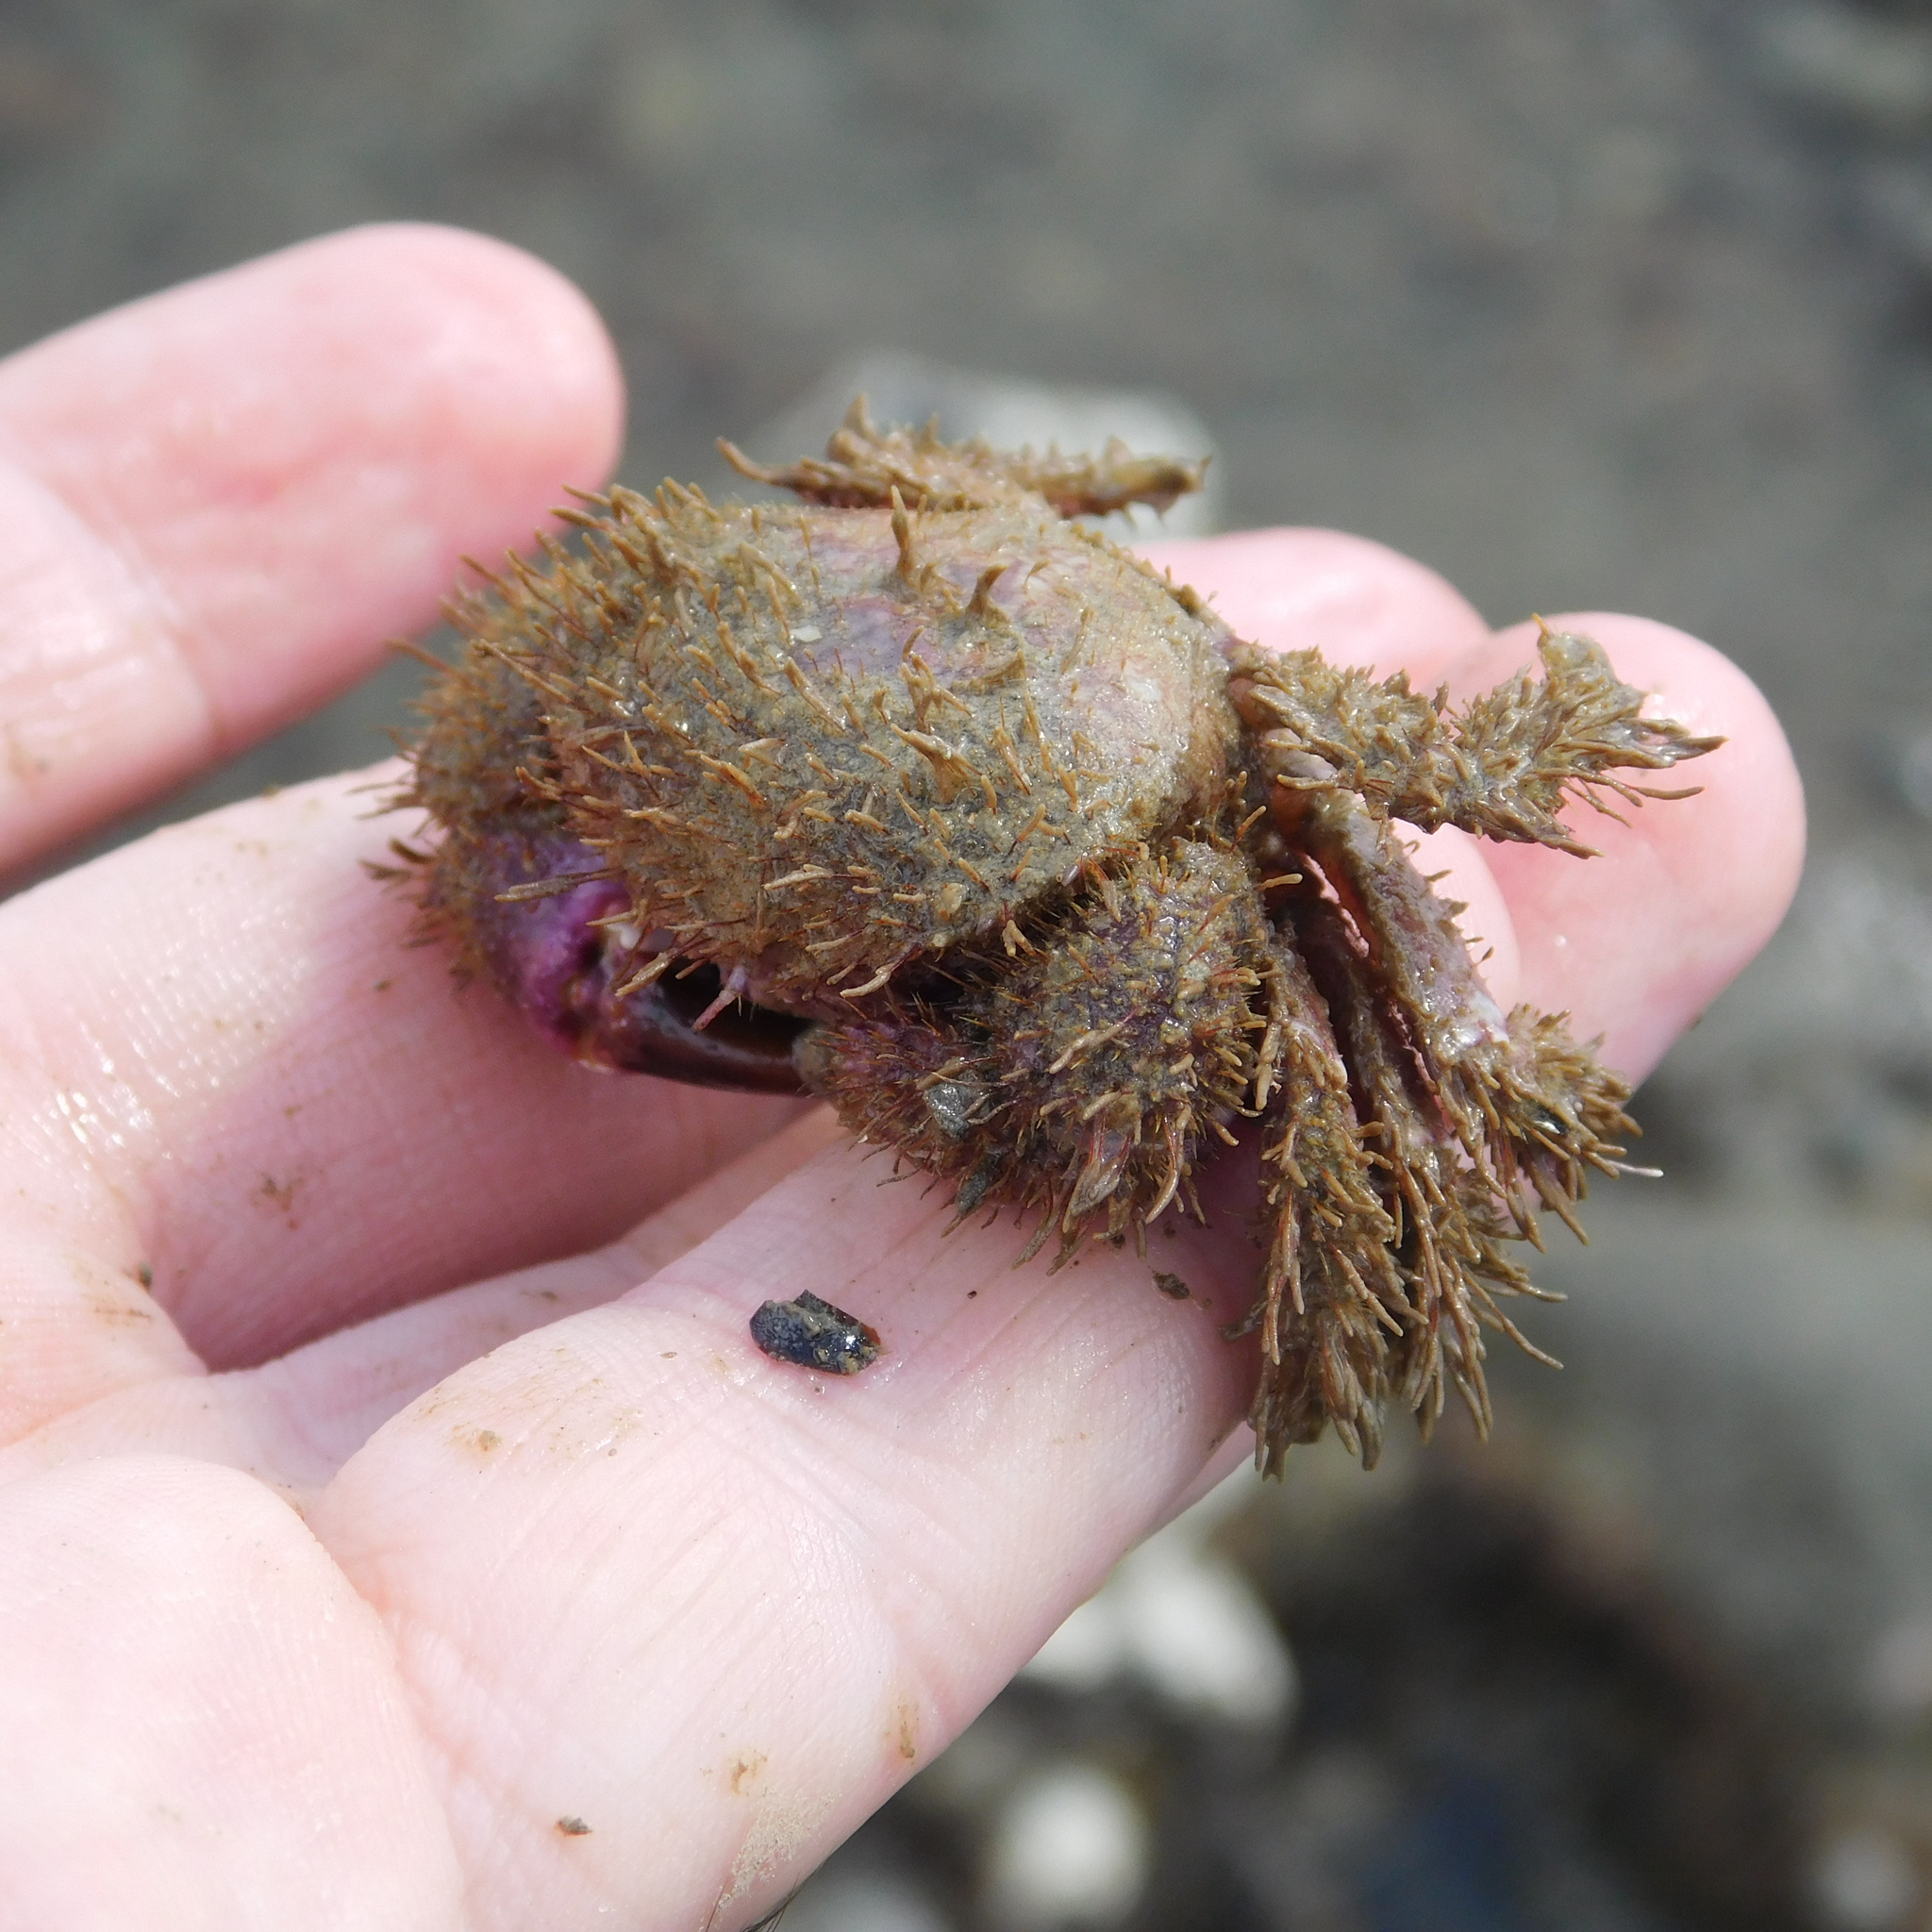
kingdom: Animalia
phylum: Arthropoda
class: Malacostraca
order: Decapoda
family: Pilumnidae
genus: Pilumnus
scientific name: Pilumnus novaezealandiae
